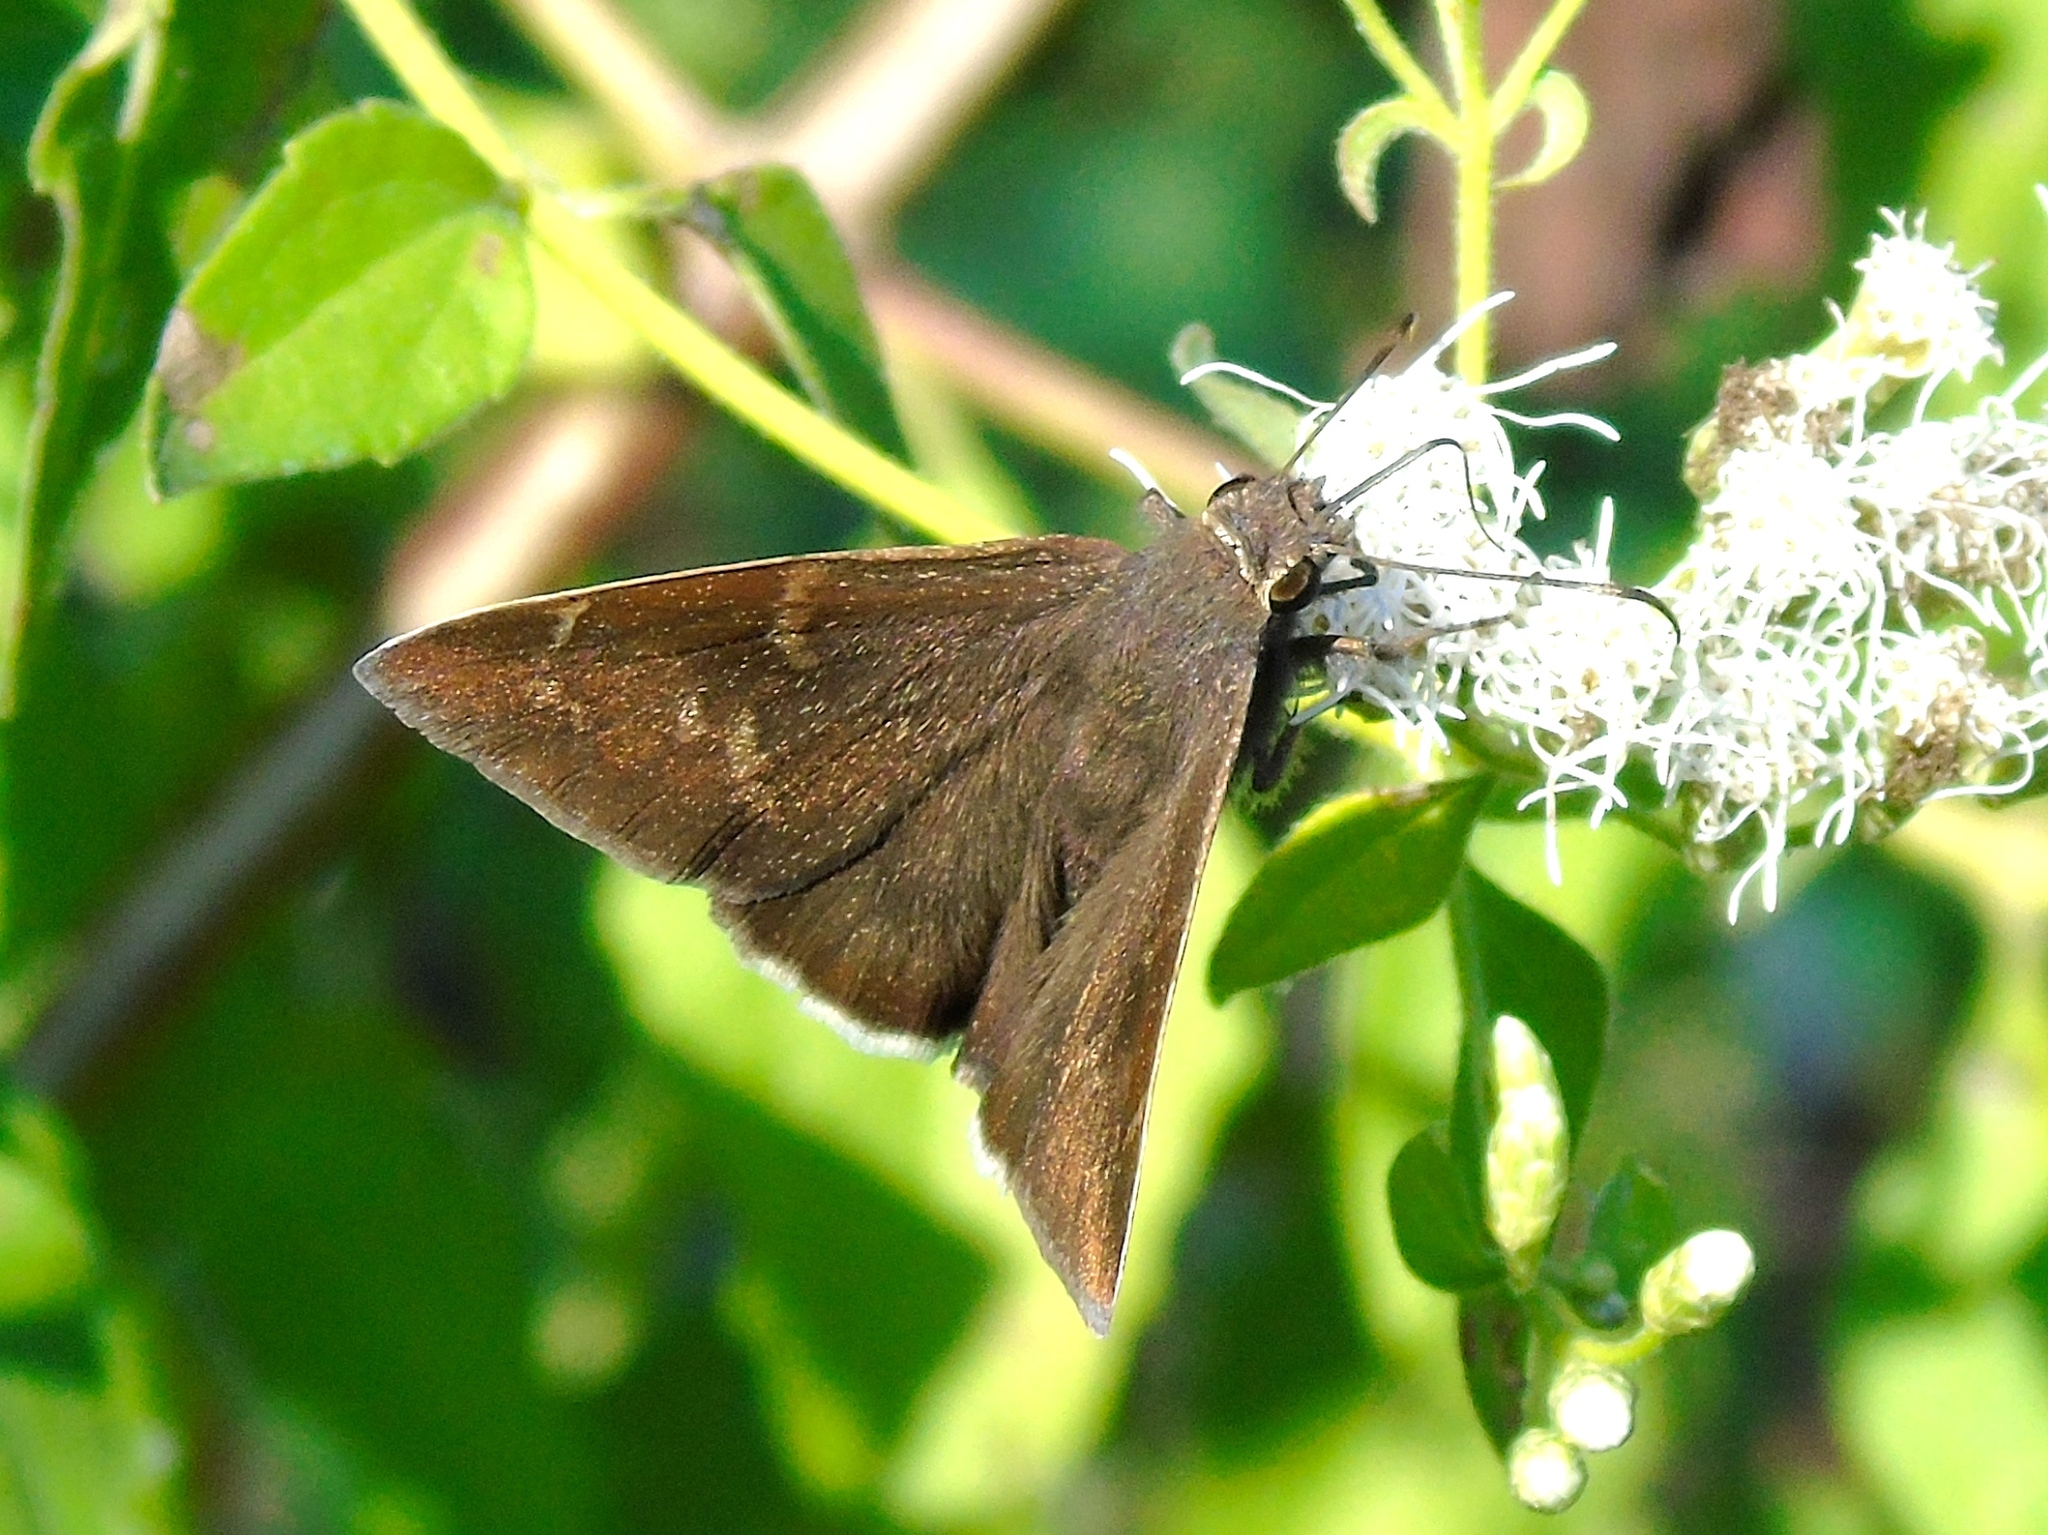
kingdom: Animalia
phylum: Arthropoda
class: Insecta
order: Lepidoptera
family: Hesperiidae
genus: Achalarus
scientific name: Achalarus Murgaria albociliatus
